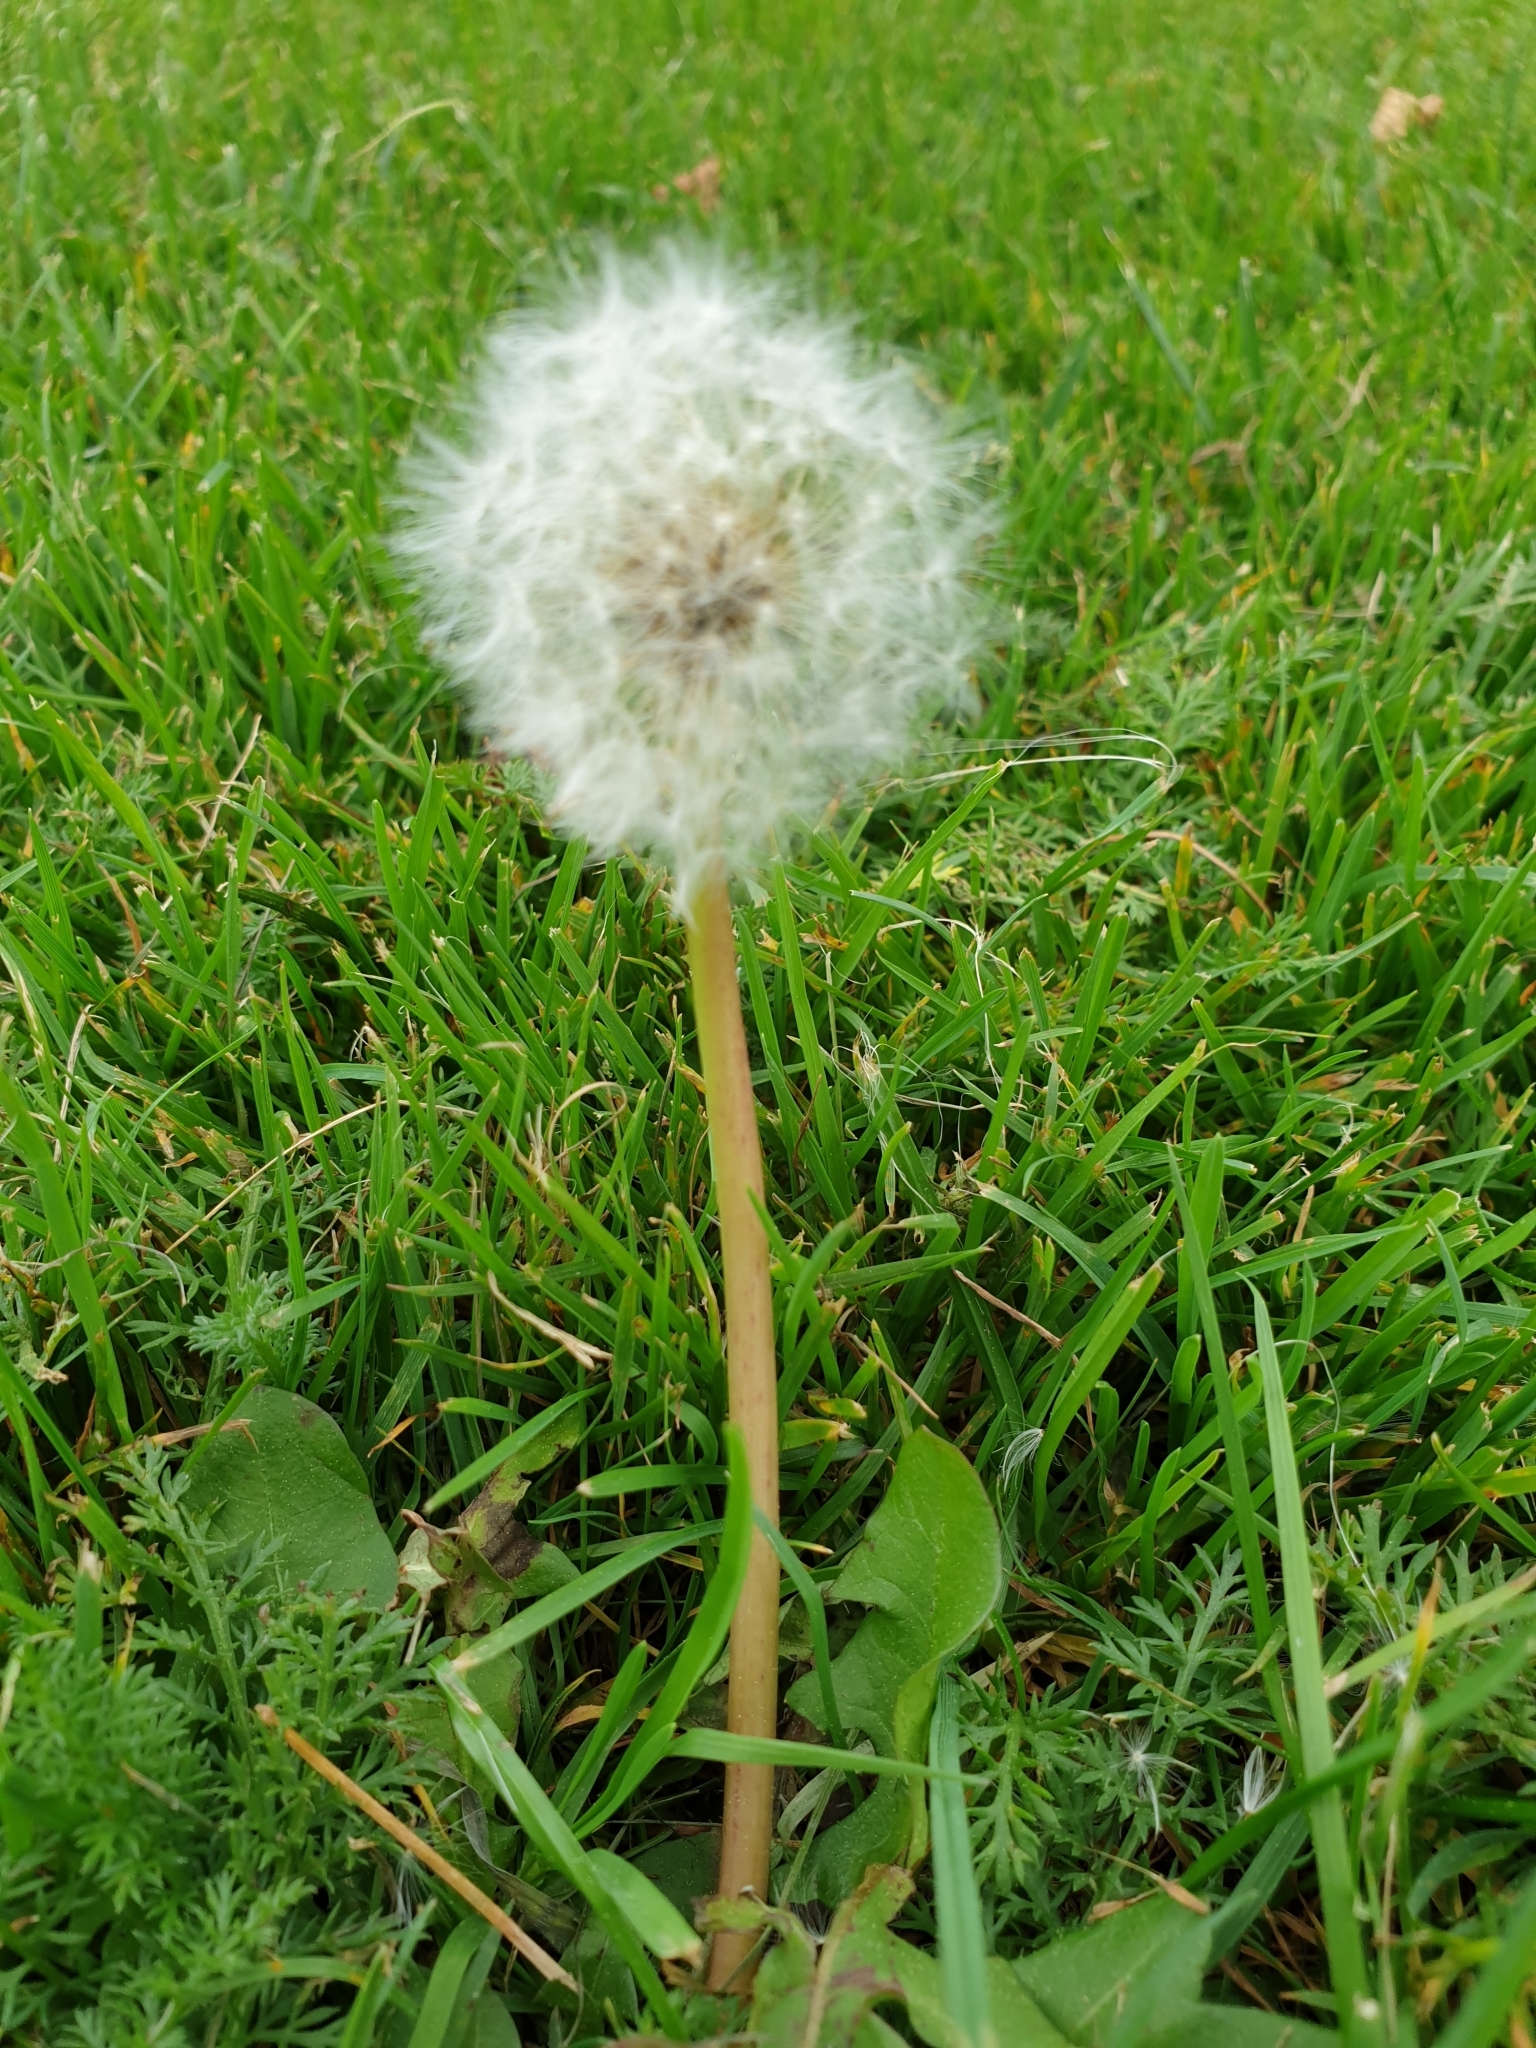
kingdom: Plantae
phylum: Tracheophyta
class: Magnoliopsida
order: Asterales
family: Asteraceae
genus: Taraxacum
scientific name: Taraxacum officinale
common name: Common dandelion
